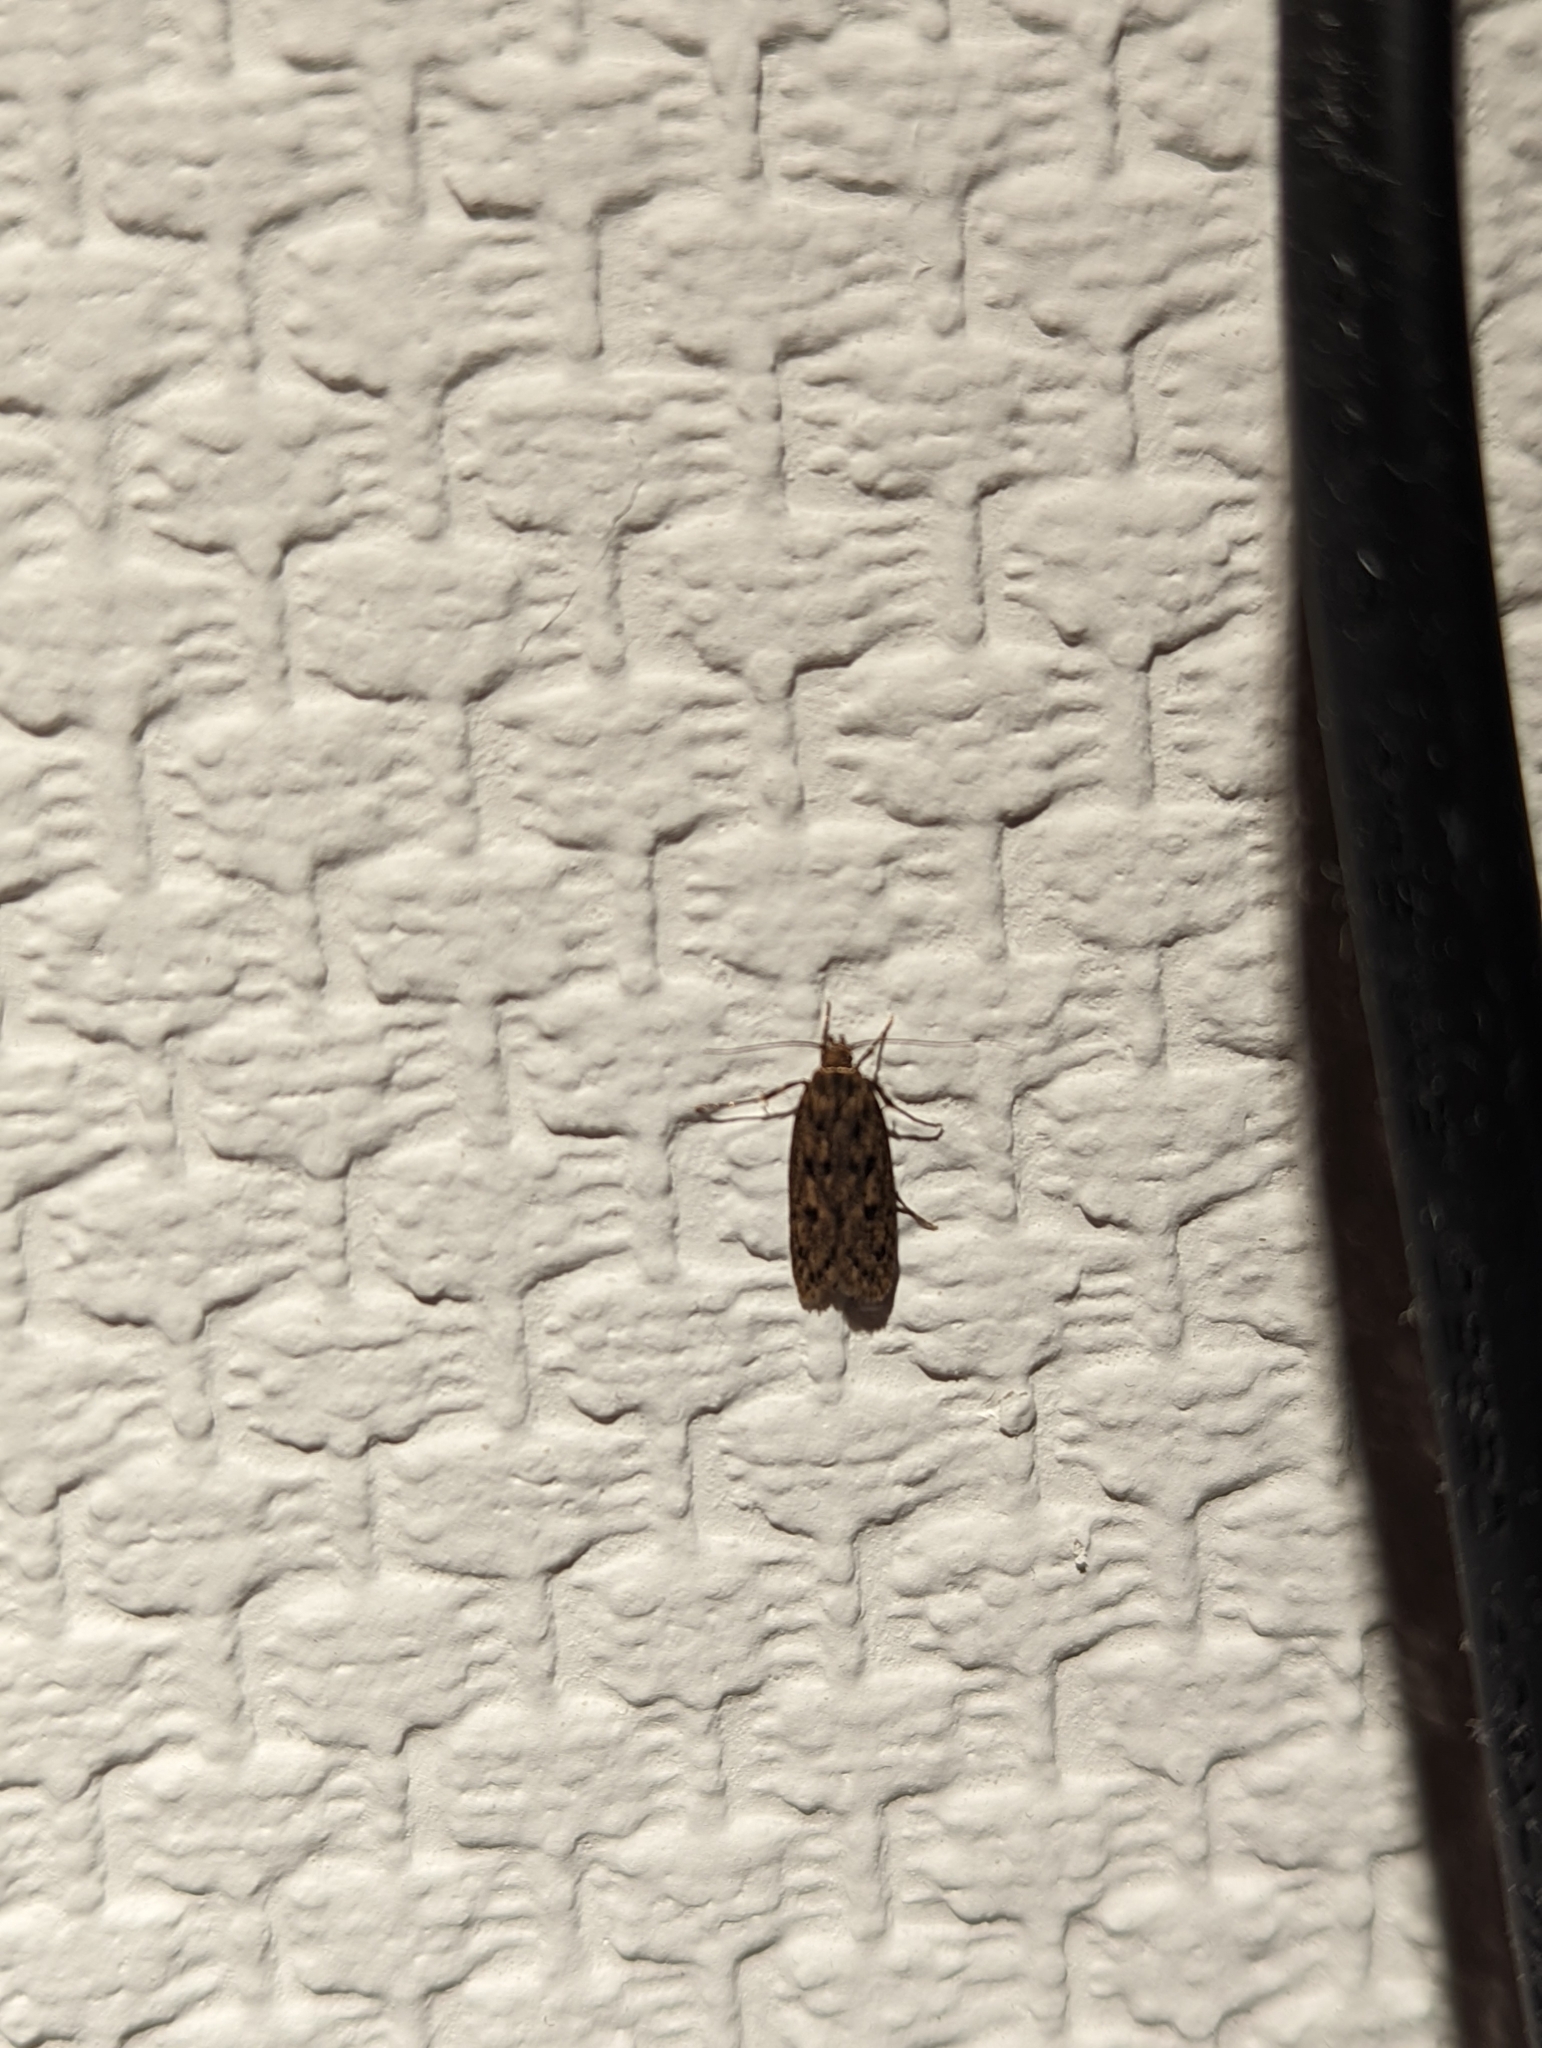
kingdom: Animalia
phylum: Arthropoda
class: Insecta
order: Lepidoptera
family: Oecophoridae
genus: Hofmannophila
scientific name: Hofmannophila pseudospretella
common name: Brown house moth
